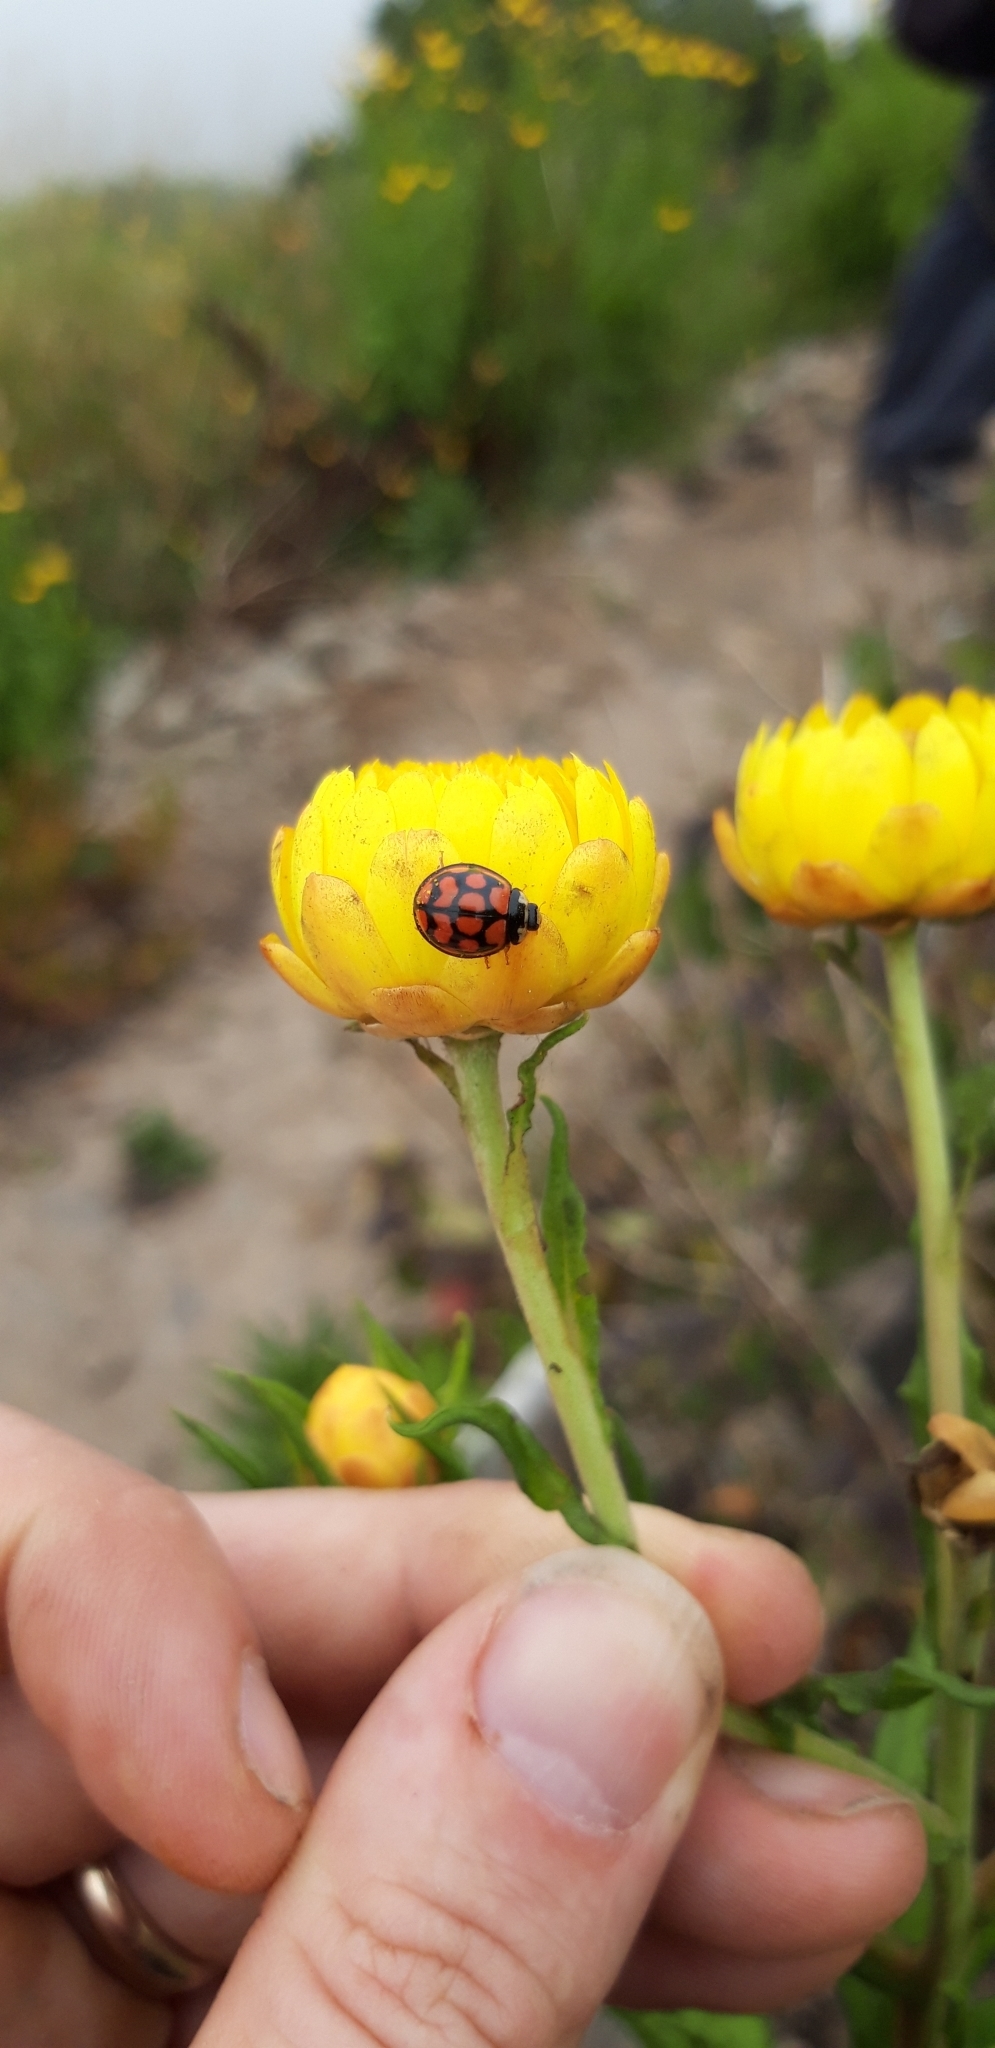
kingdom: Animalia
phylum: Arthropoda
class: Insecta
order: Coleoptera
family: Coccinellidae
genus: Cheilomenes
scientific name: Cheilomenes lunata
